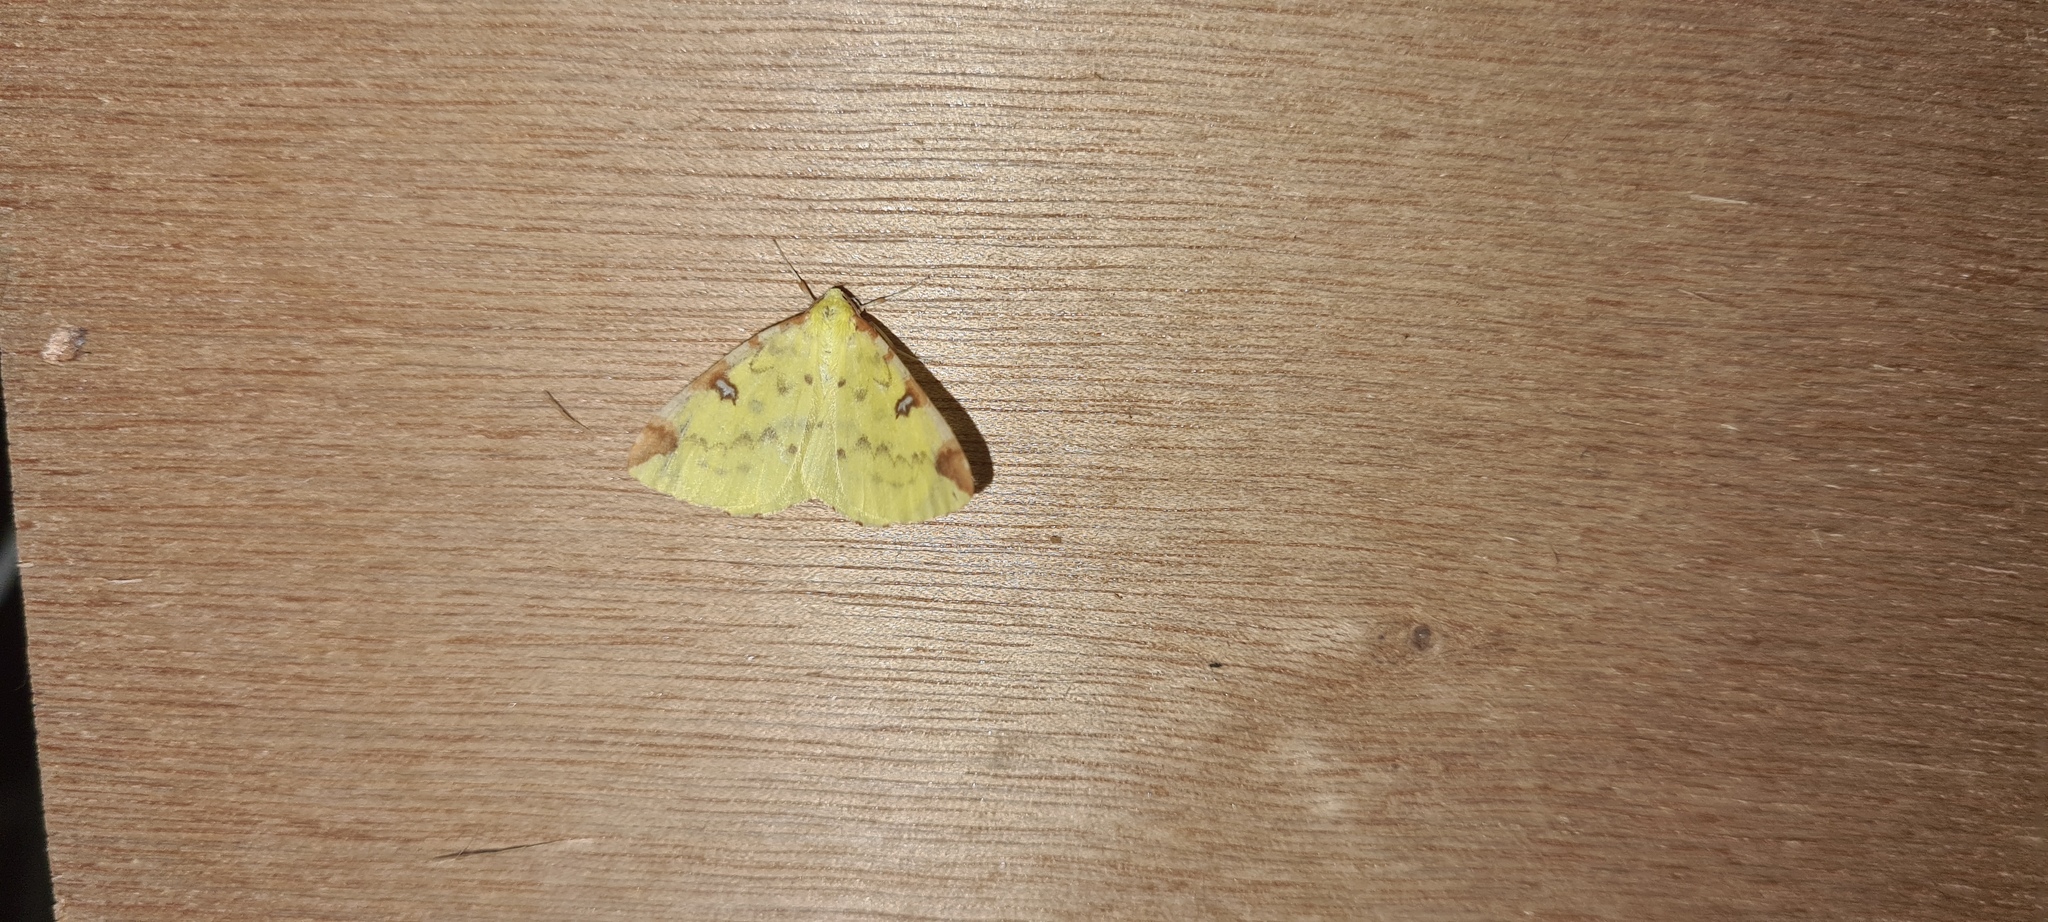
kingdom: Animalia
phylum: Arthropoda
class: Insecta
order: Lepidoptera
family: Geometridae
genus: Opisthograptis
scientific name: Opisthograptis luteolata
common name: Brimstone moth
